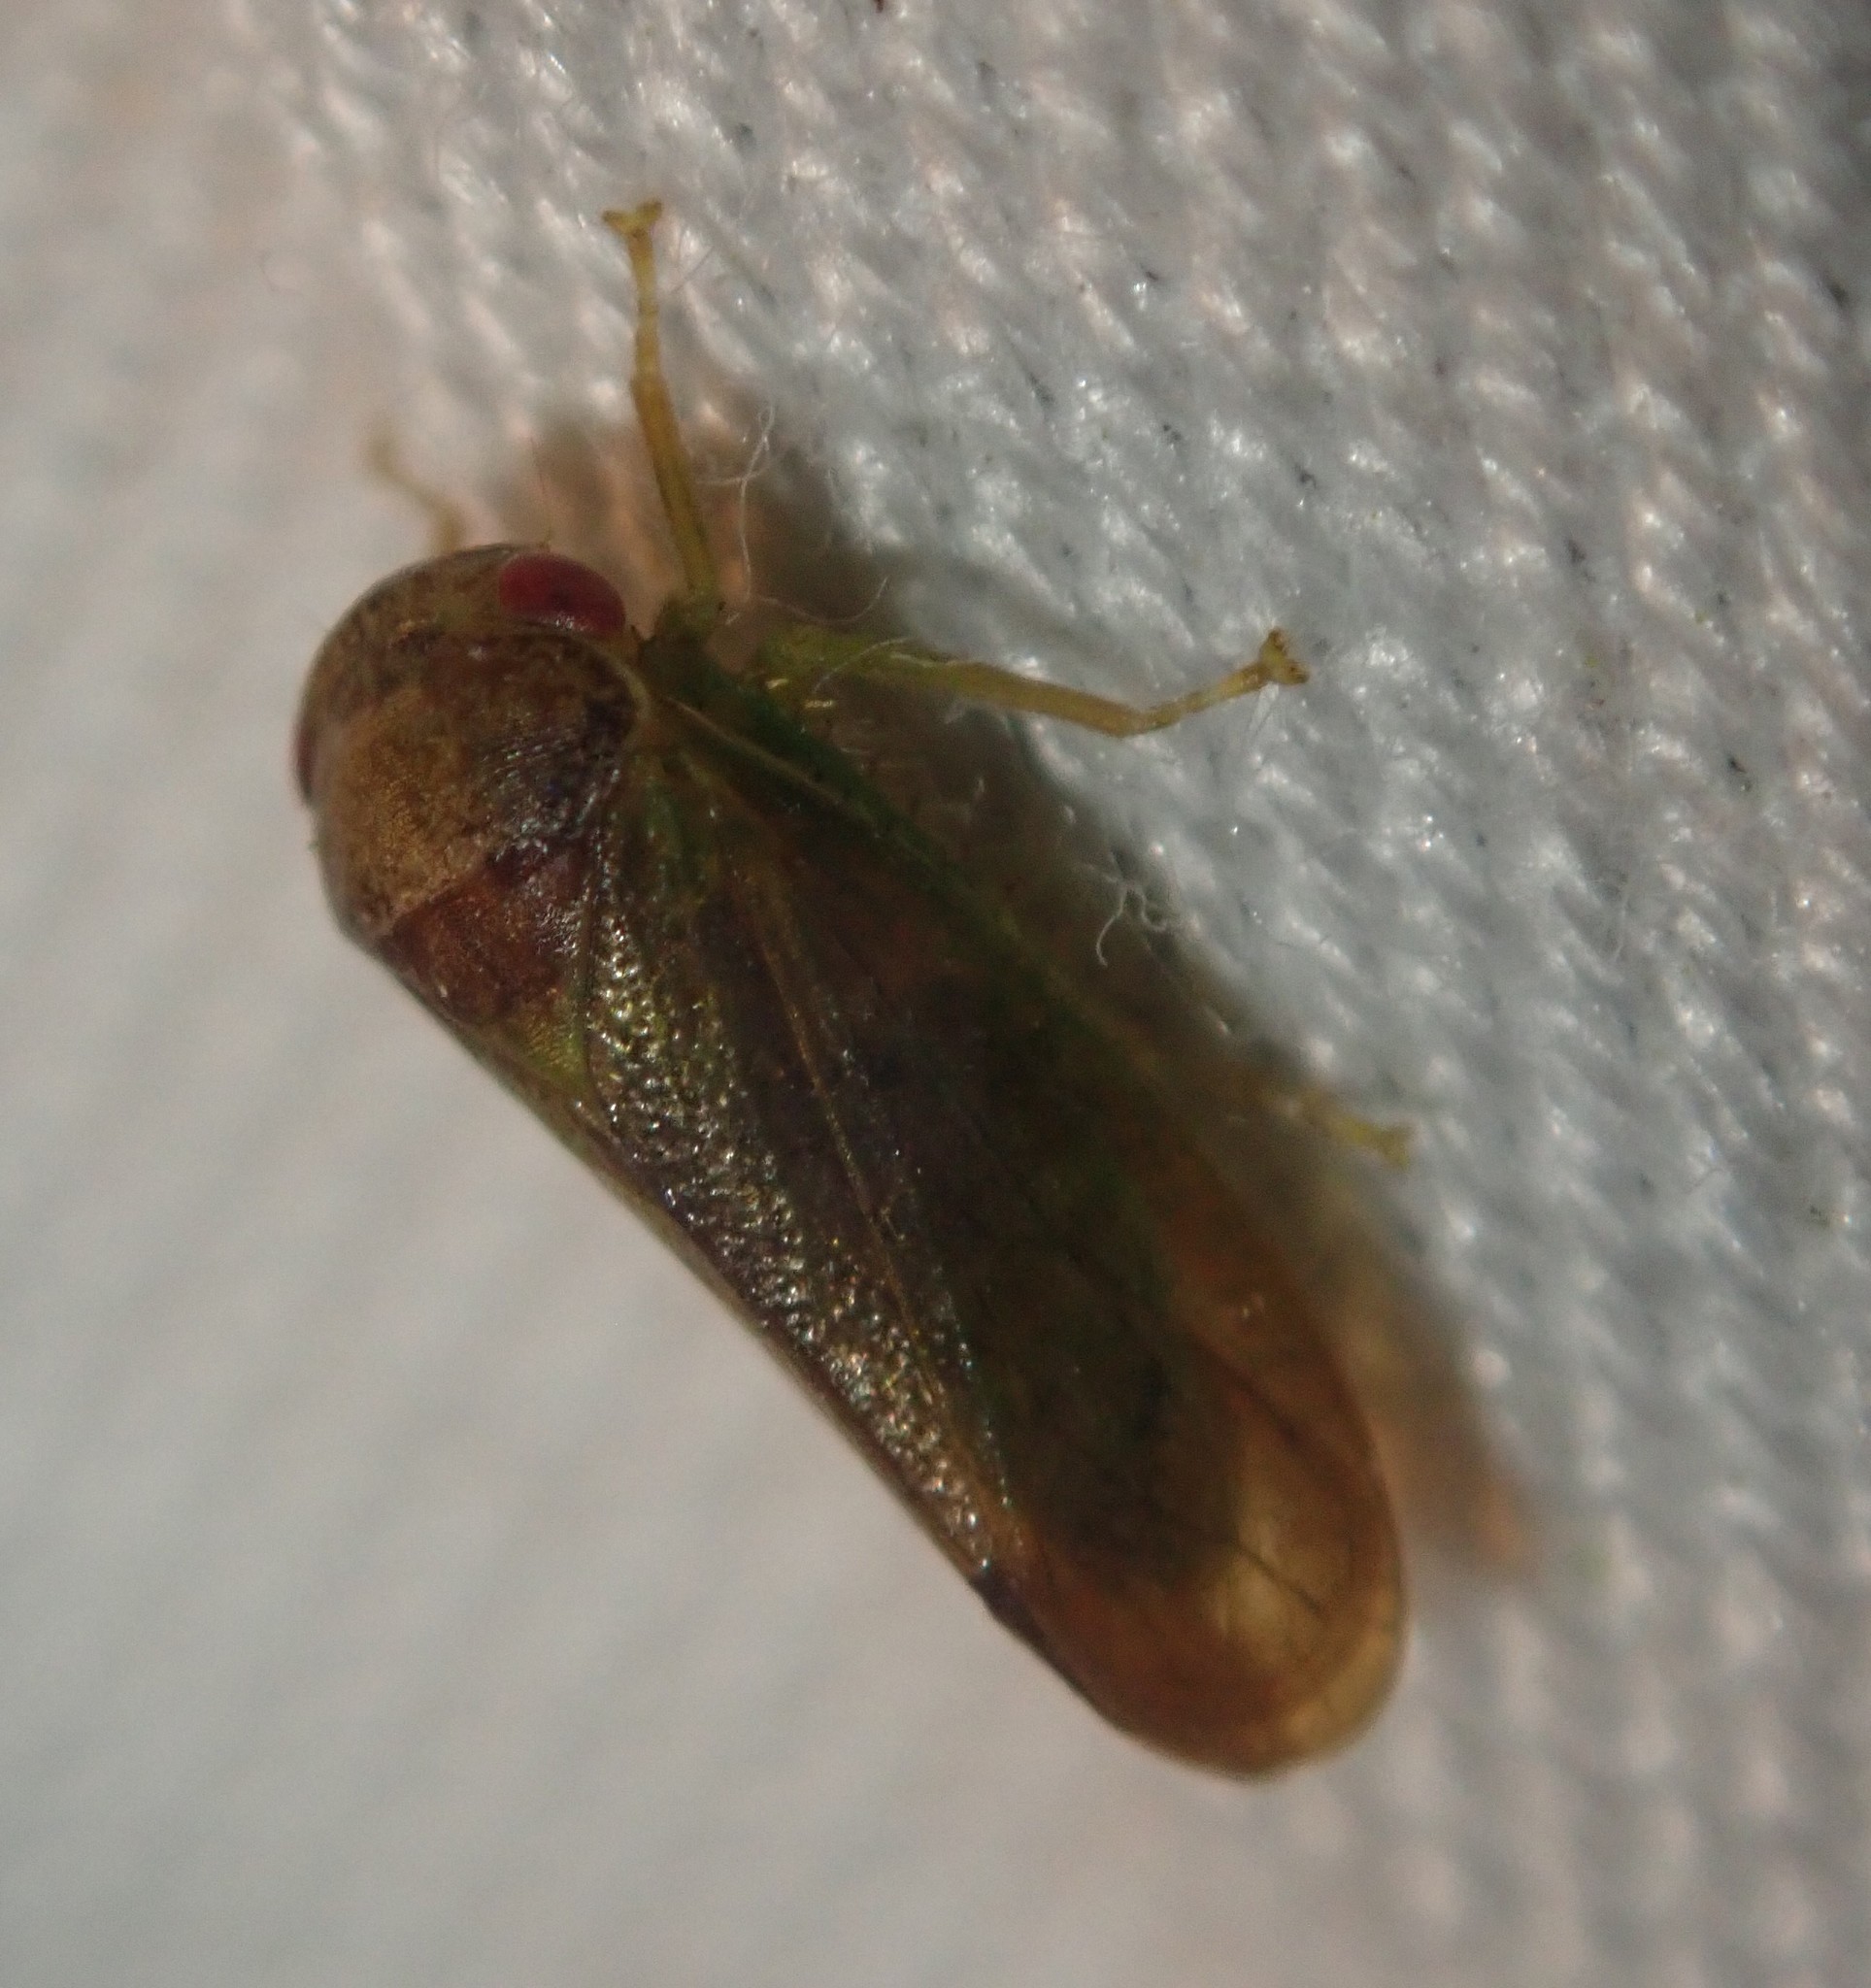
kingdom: Animalia
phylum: Arthropoda
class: Insecta
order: Hemiptera
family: Cicadellidae
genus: Iassus
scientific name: Iassus lanio
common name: Leafhopper
